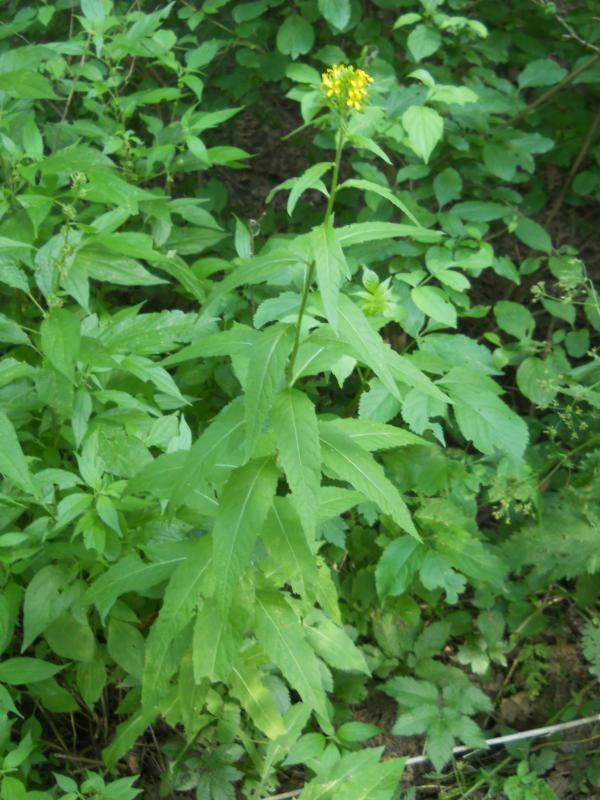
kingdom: Plantae
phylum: Tracheophyta
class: Magnoliopsida
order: Brassicales
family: Brassicaceae
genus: Sisymbrium
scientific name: Sisymbrium strictissimum
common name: Perennial rocket
